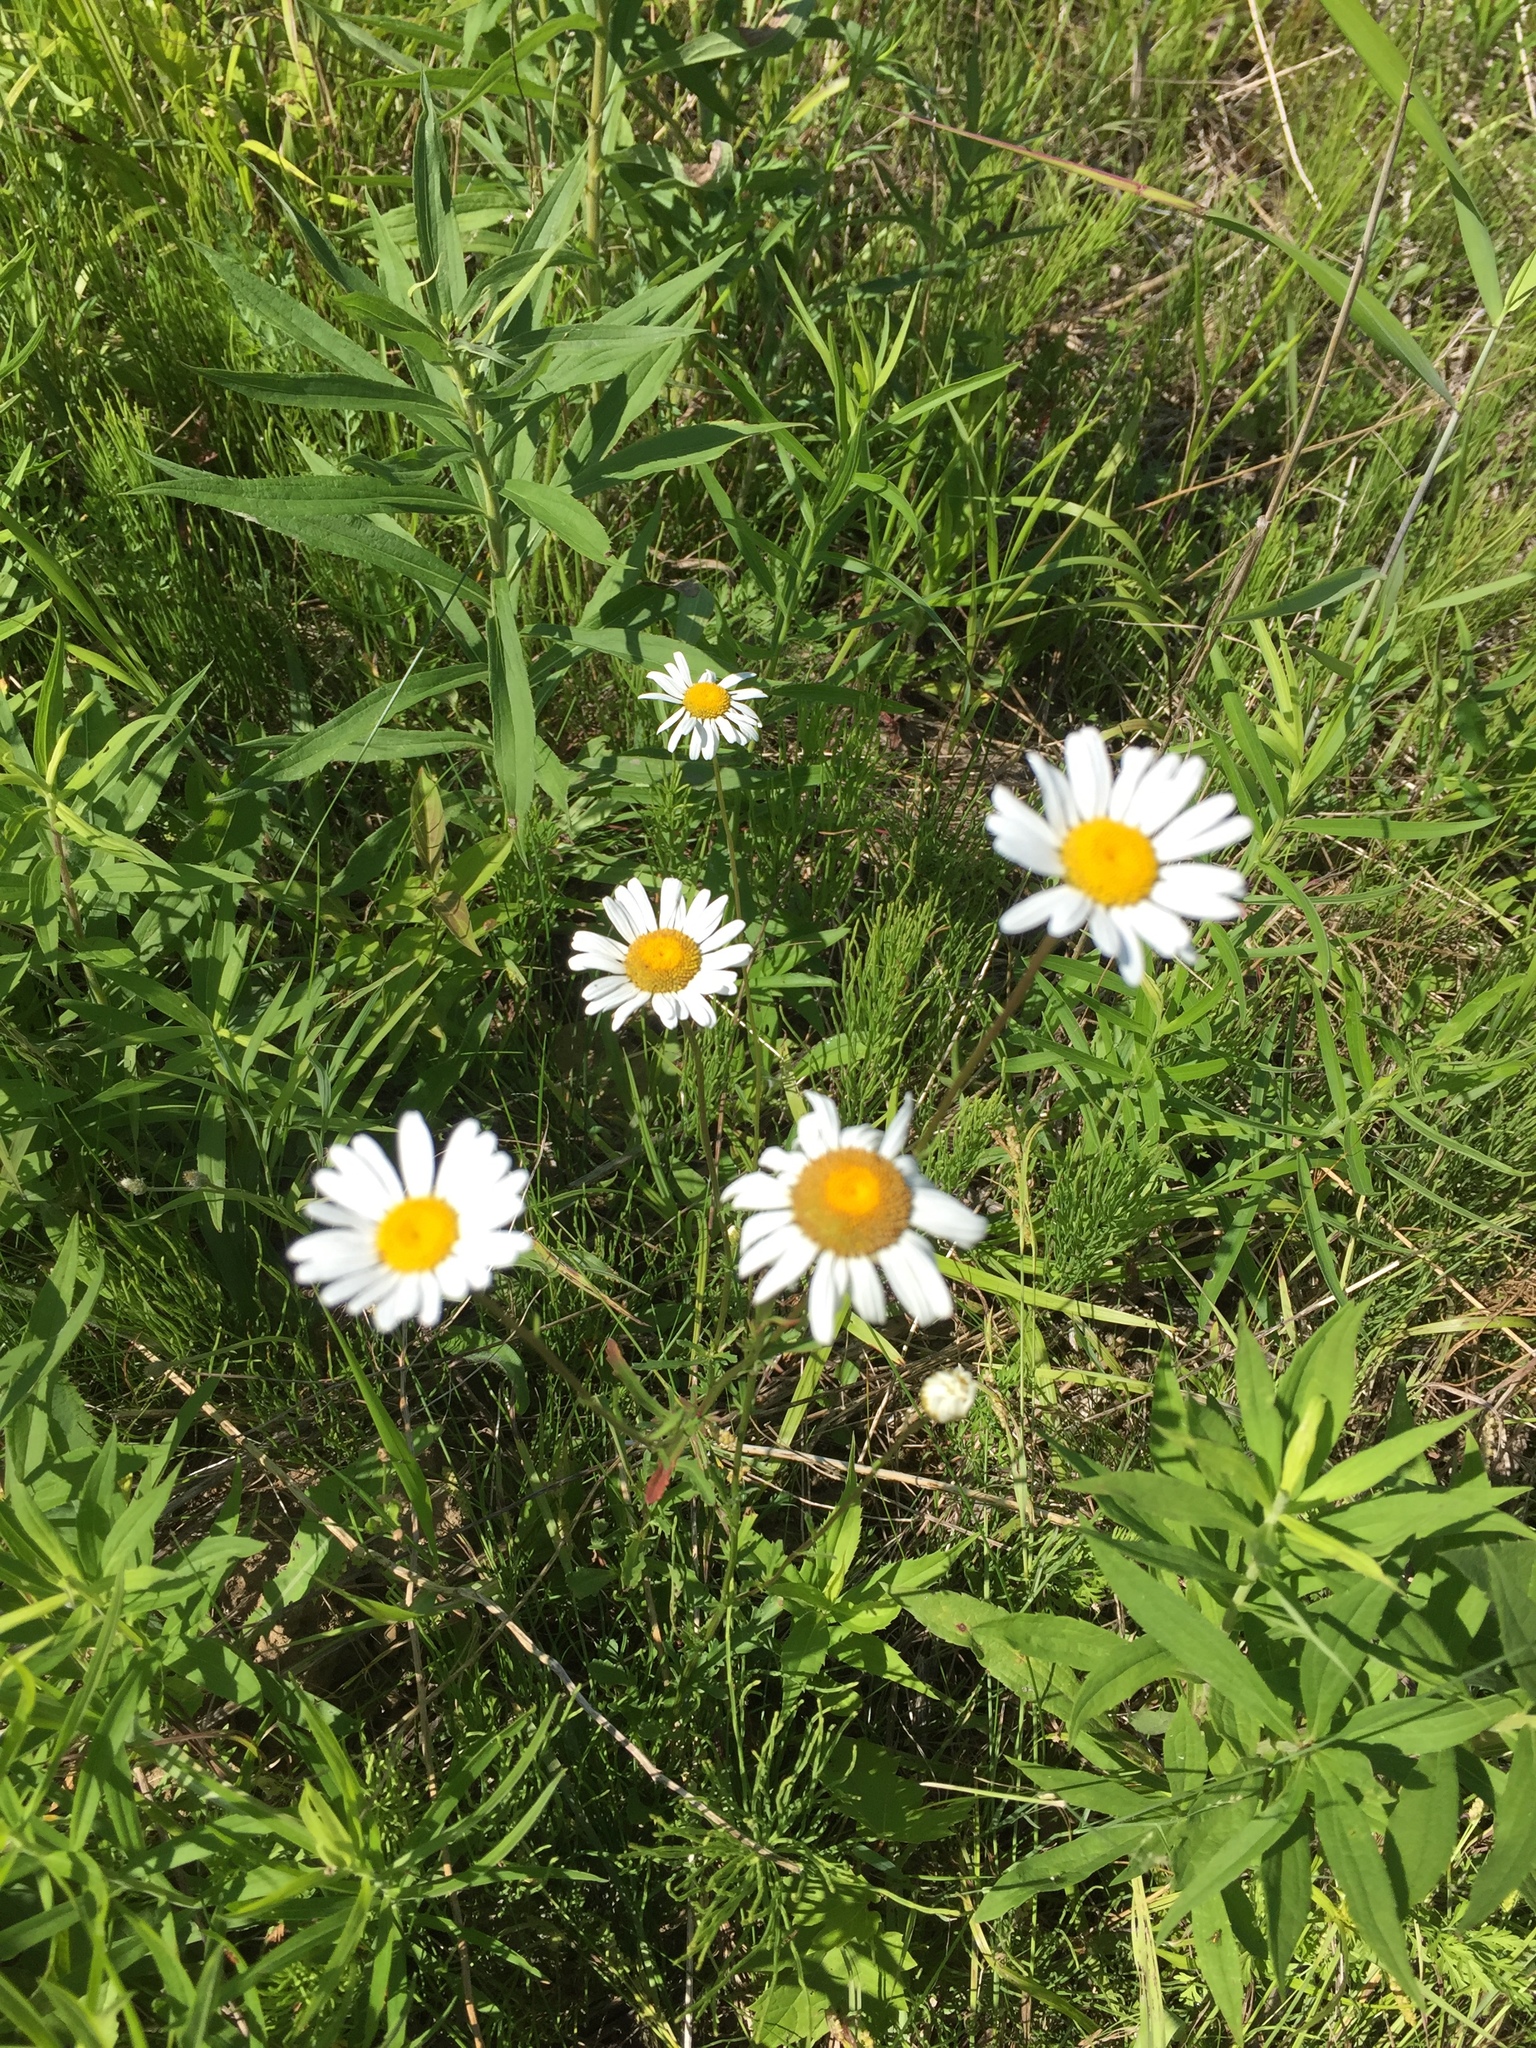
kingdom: Plantae
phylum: Tracheophyta
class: Magnoliopsida
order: Asterales
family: Asteraceae
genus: Leucanthemum
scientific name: Leucanthemum vulgare
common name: Oxeye daisy
